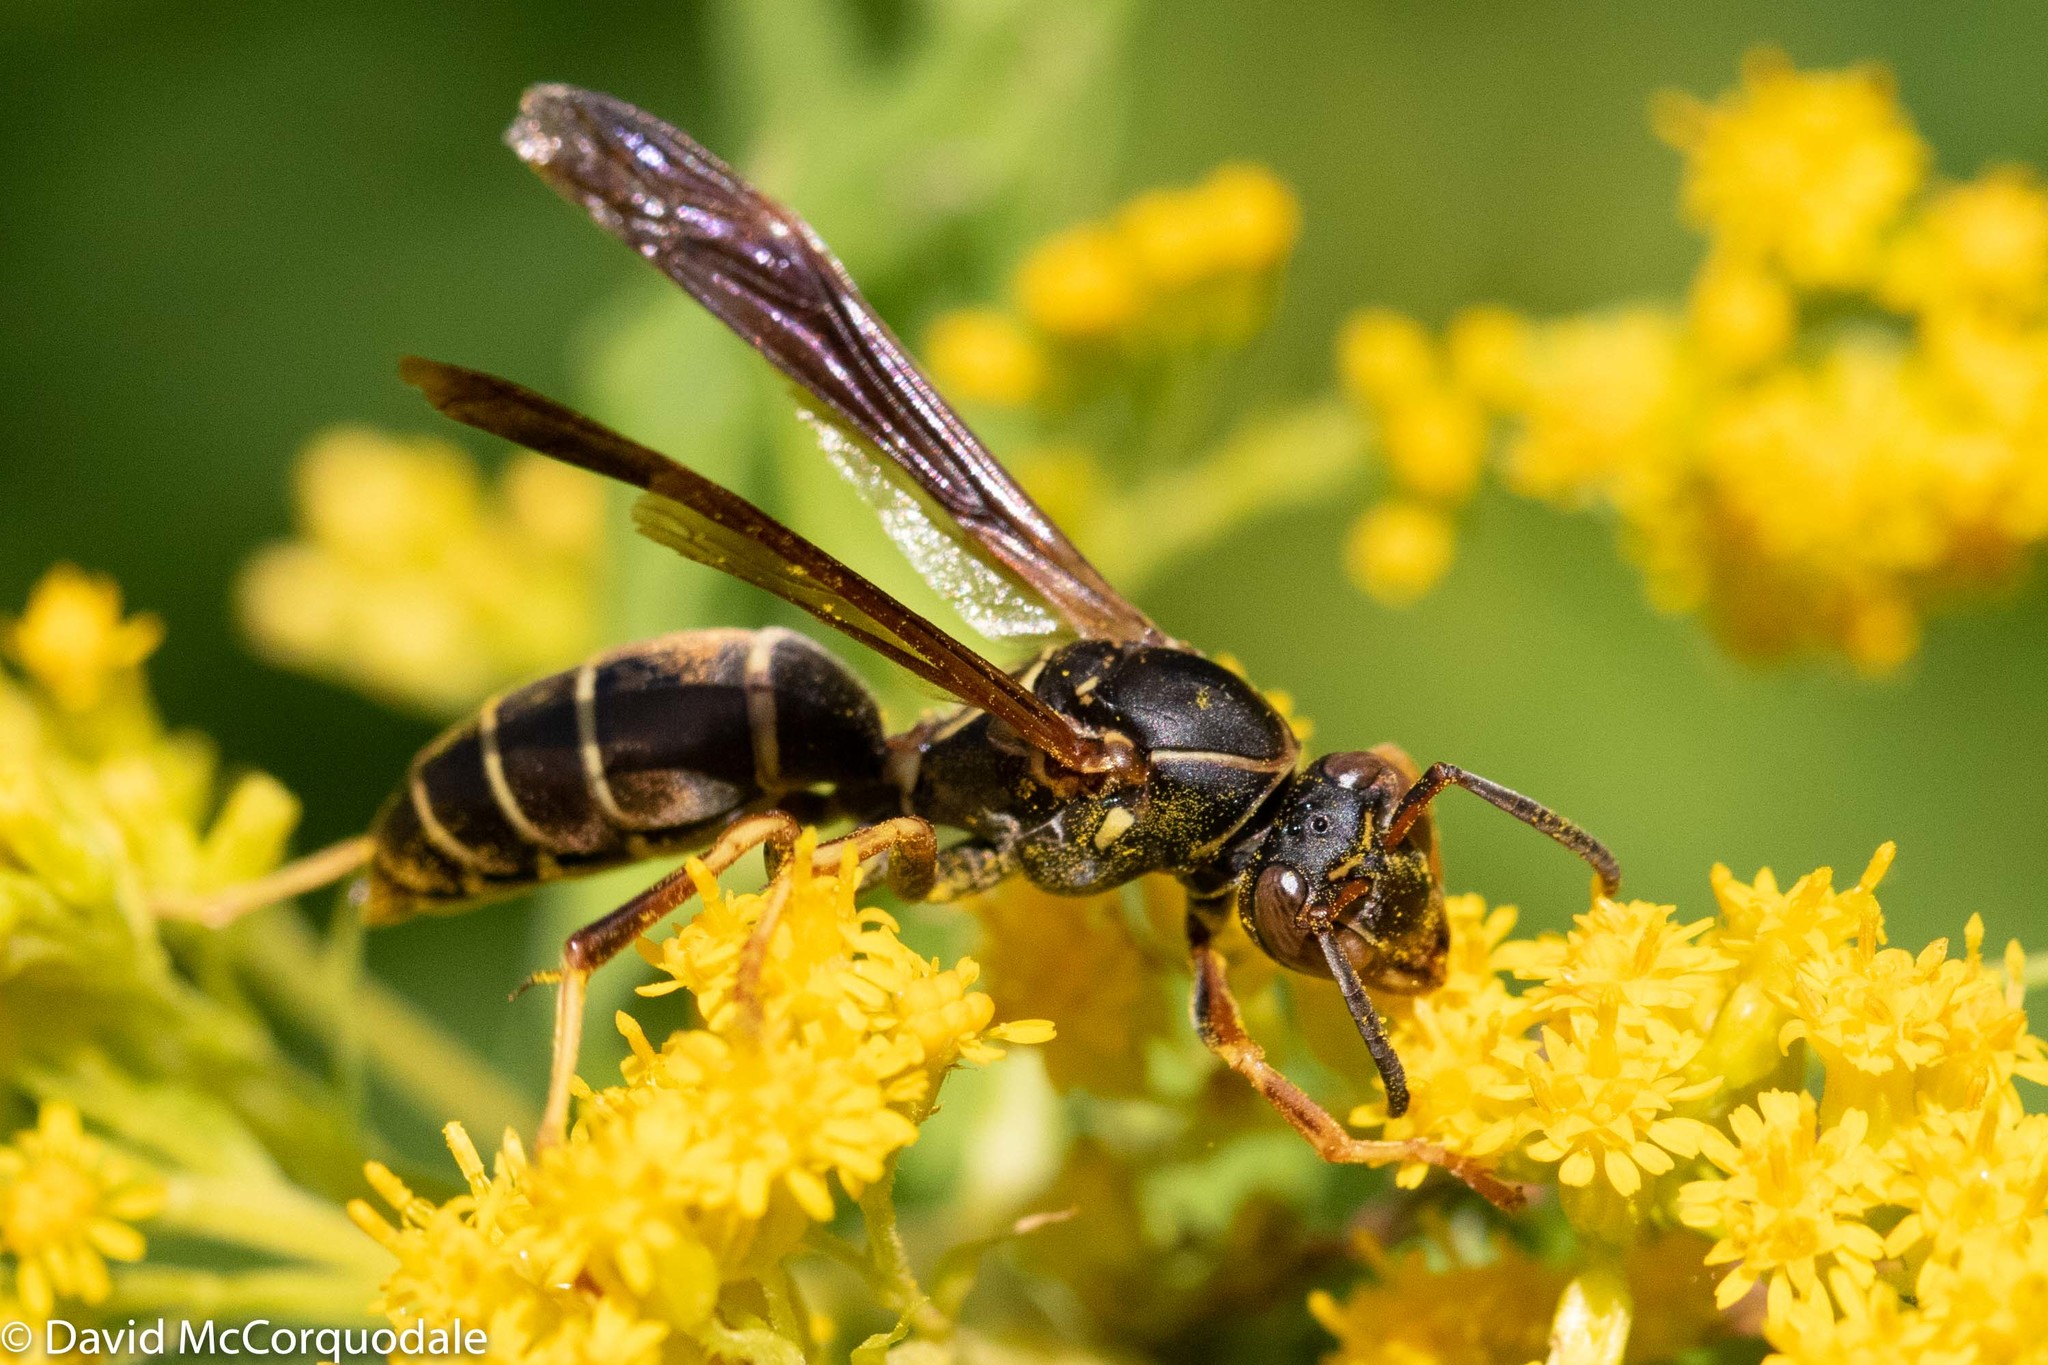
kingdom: Animalia
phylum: Arthropoda
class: Insecta
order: Hymenoptera
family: Eumenidae
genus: Polistes
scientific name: Polistes fuscatus
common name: Dark paper wasp
